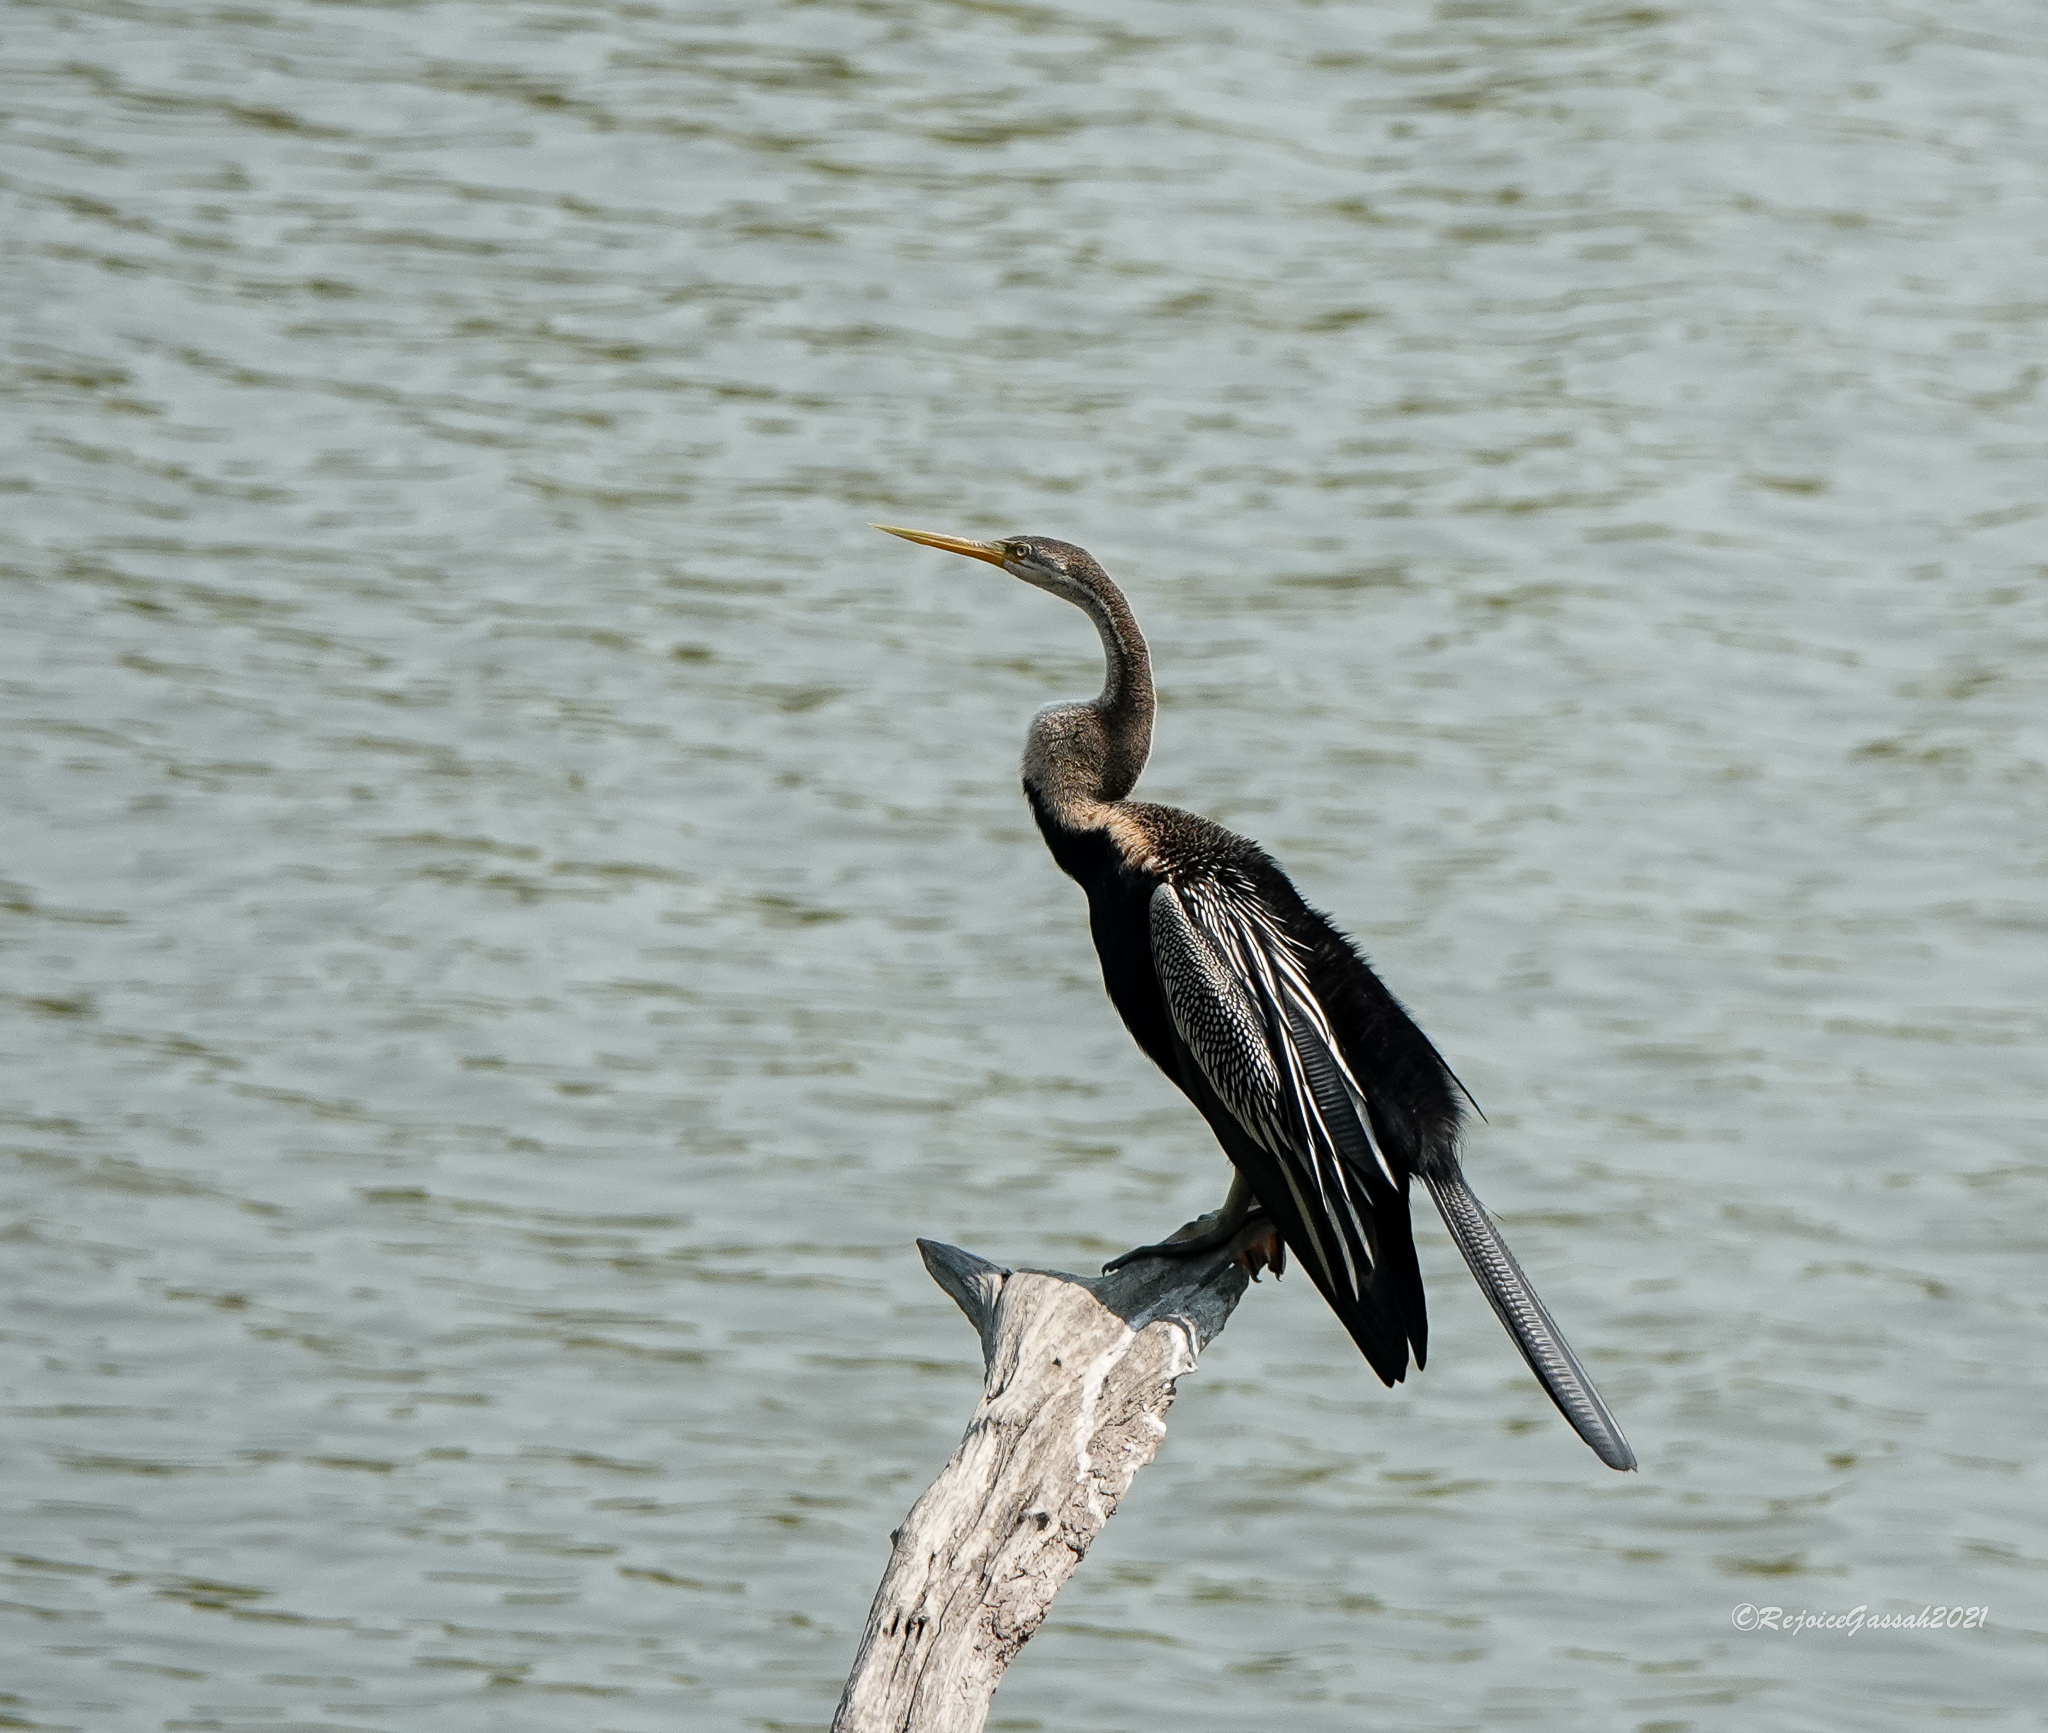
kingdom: Animalia
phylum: Chordata
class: Aves
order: Suliformes
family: Anhingidae
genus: Anhinga
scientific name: Anhinga melanogaster
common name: Oriental darter
